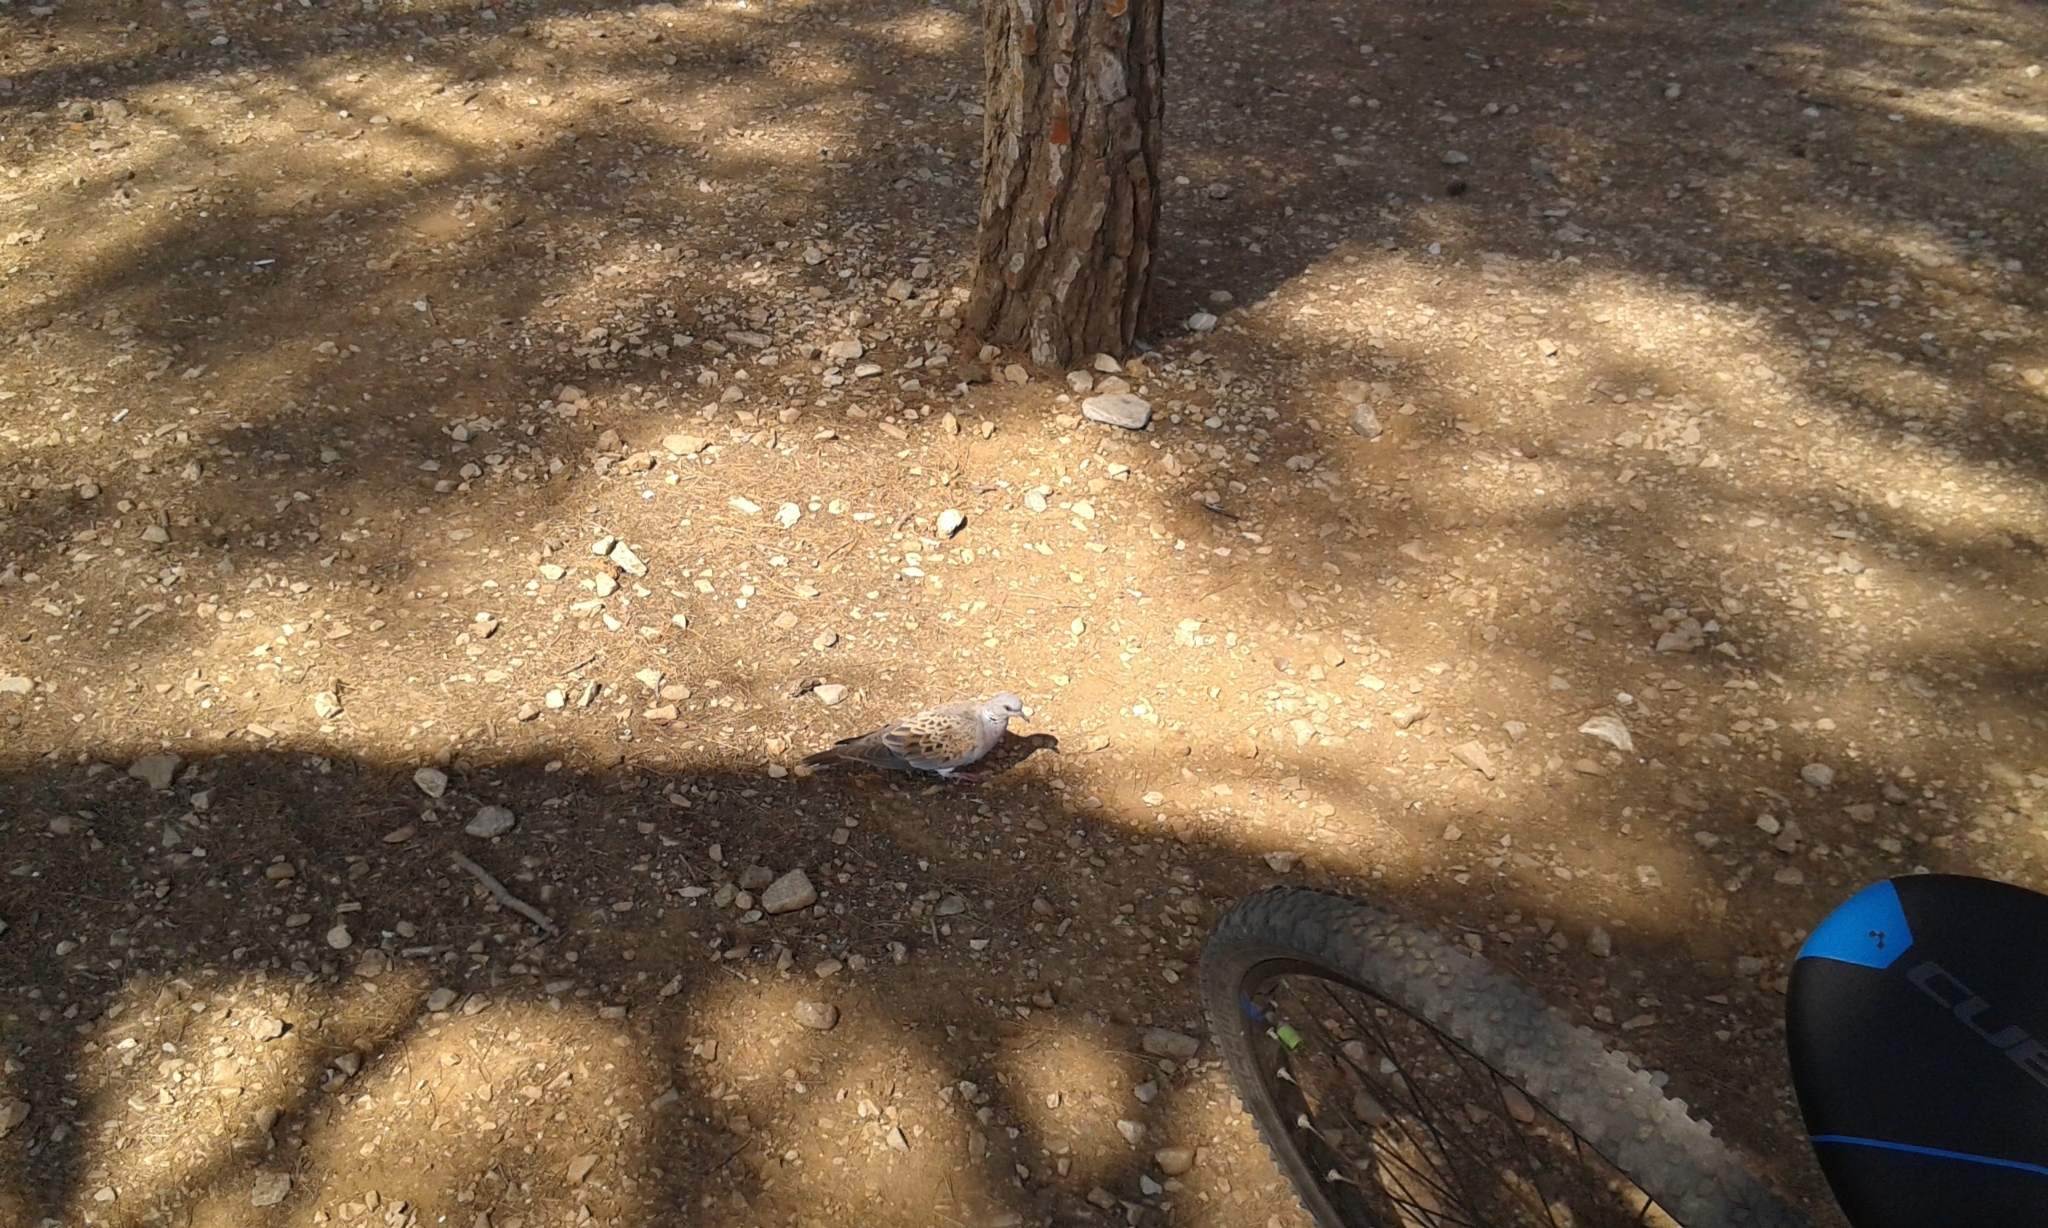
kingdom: Animalia
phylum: Chordata
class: Aves
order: Columbiformes
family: Columbidae
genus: Streptopelia
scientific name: Streptopelia turtur
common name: European turtle dove
